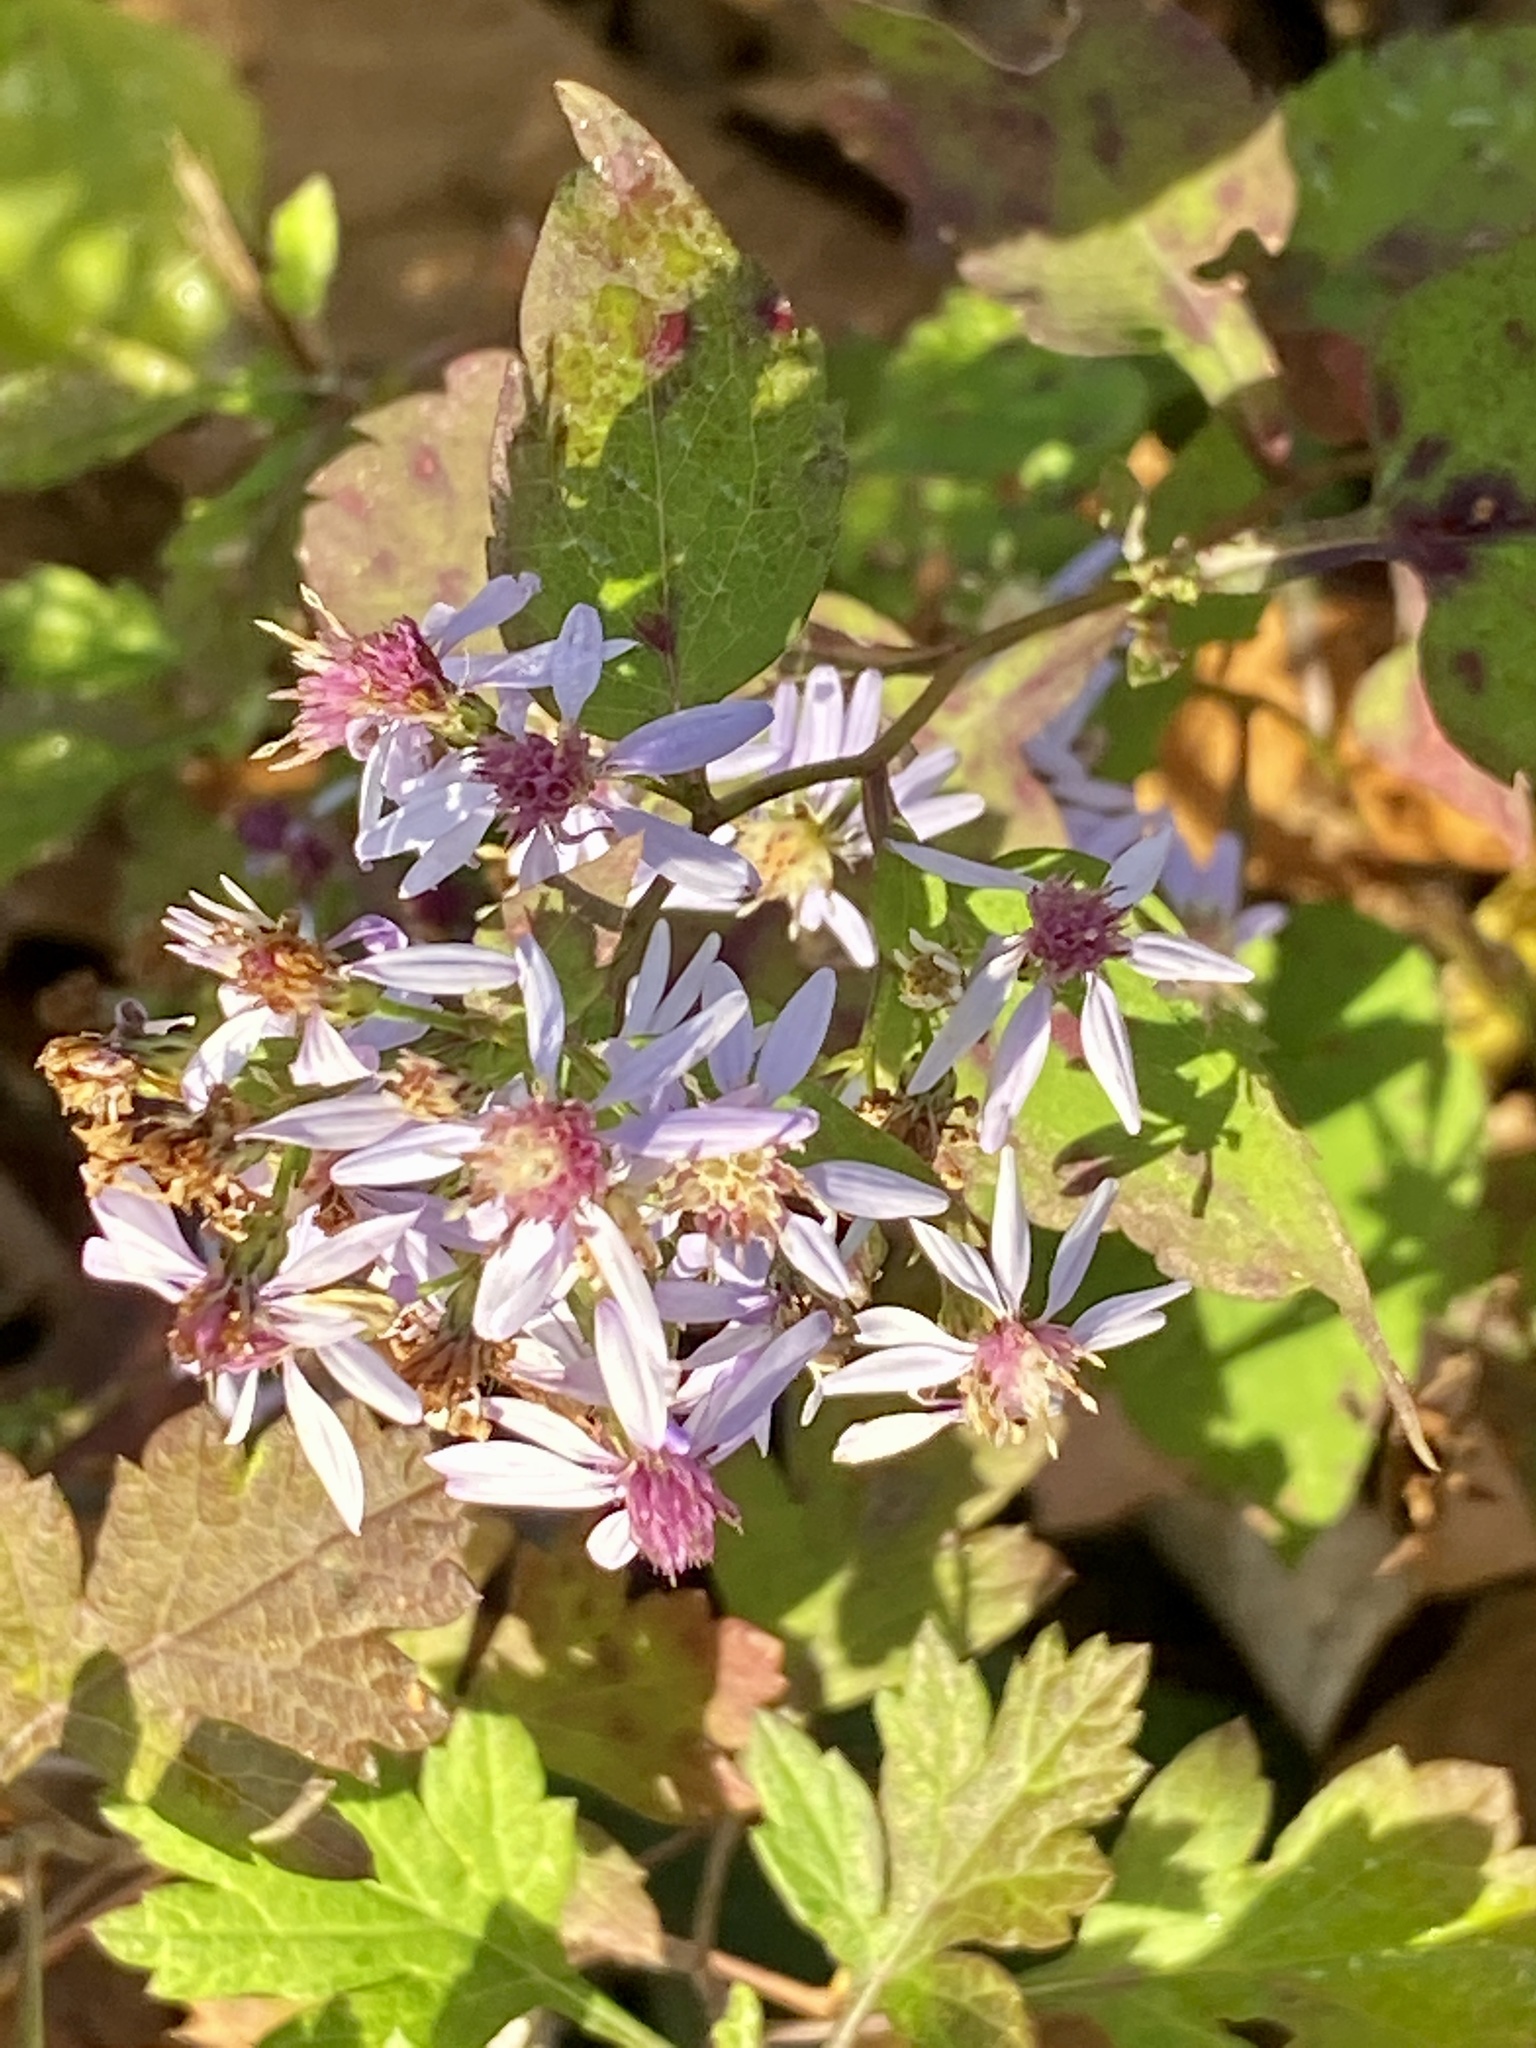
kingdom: Plantae
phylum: Tracheophyta
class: Magnoliopsida
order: Asterales
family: Asteraceae
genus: Symphyotrichum
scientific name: Symphyotrichum cordifolium
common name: Beeweed
